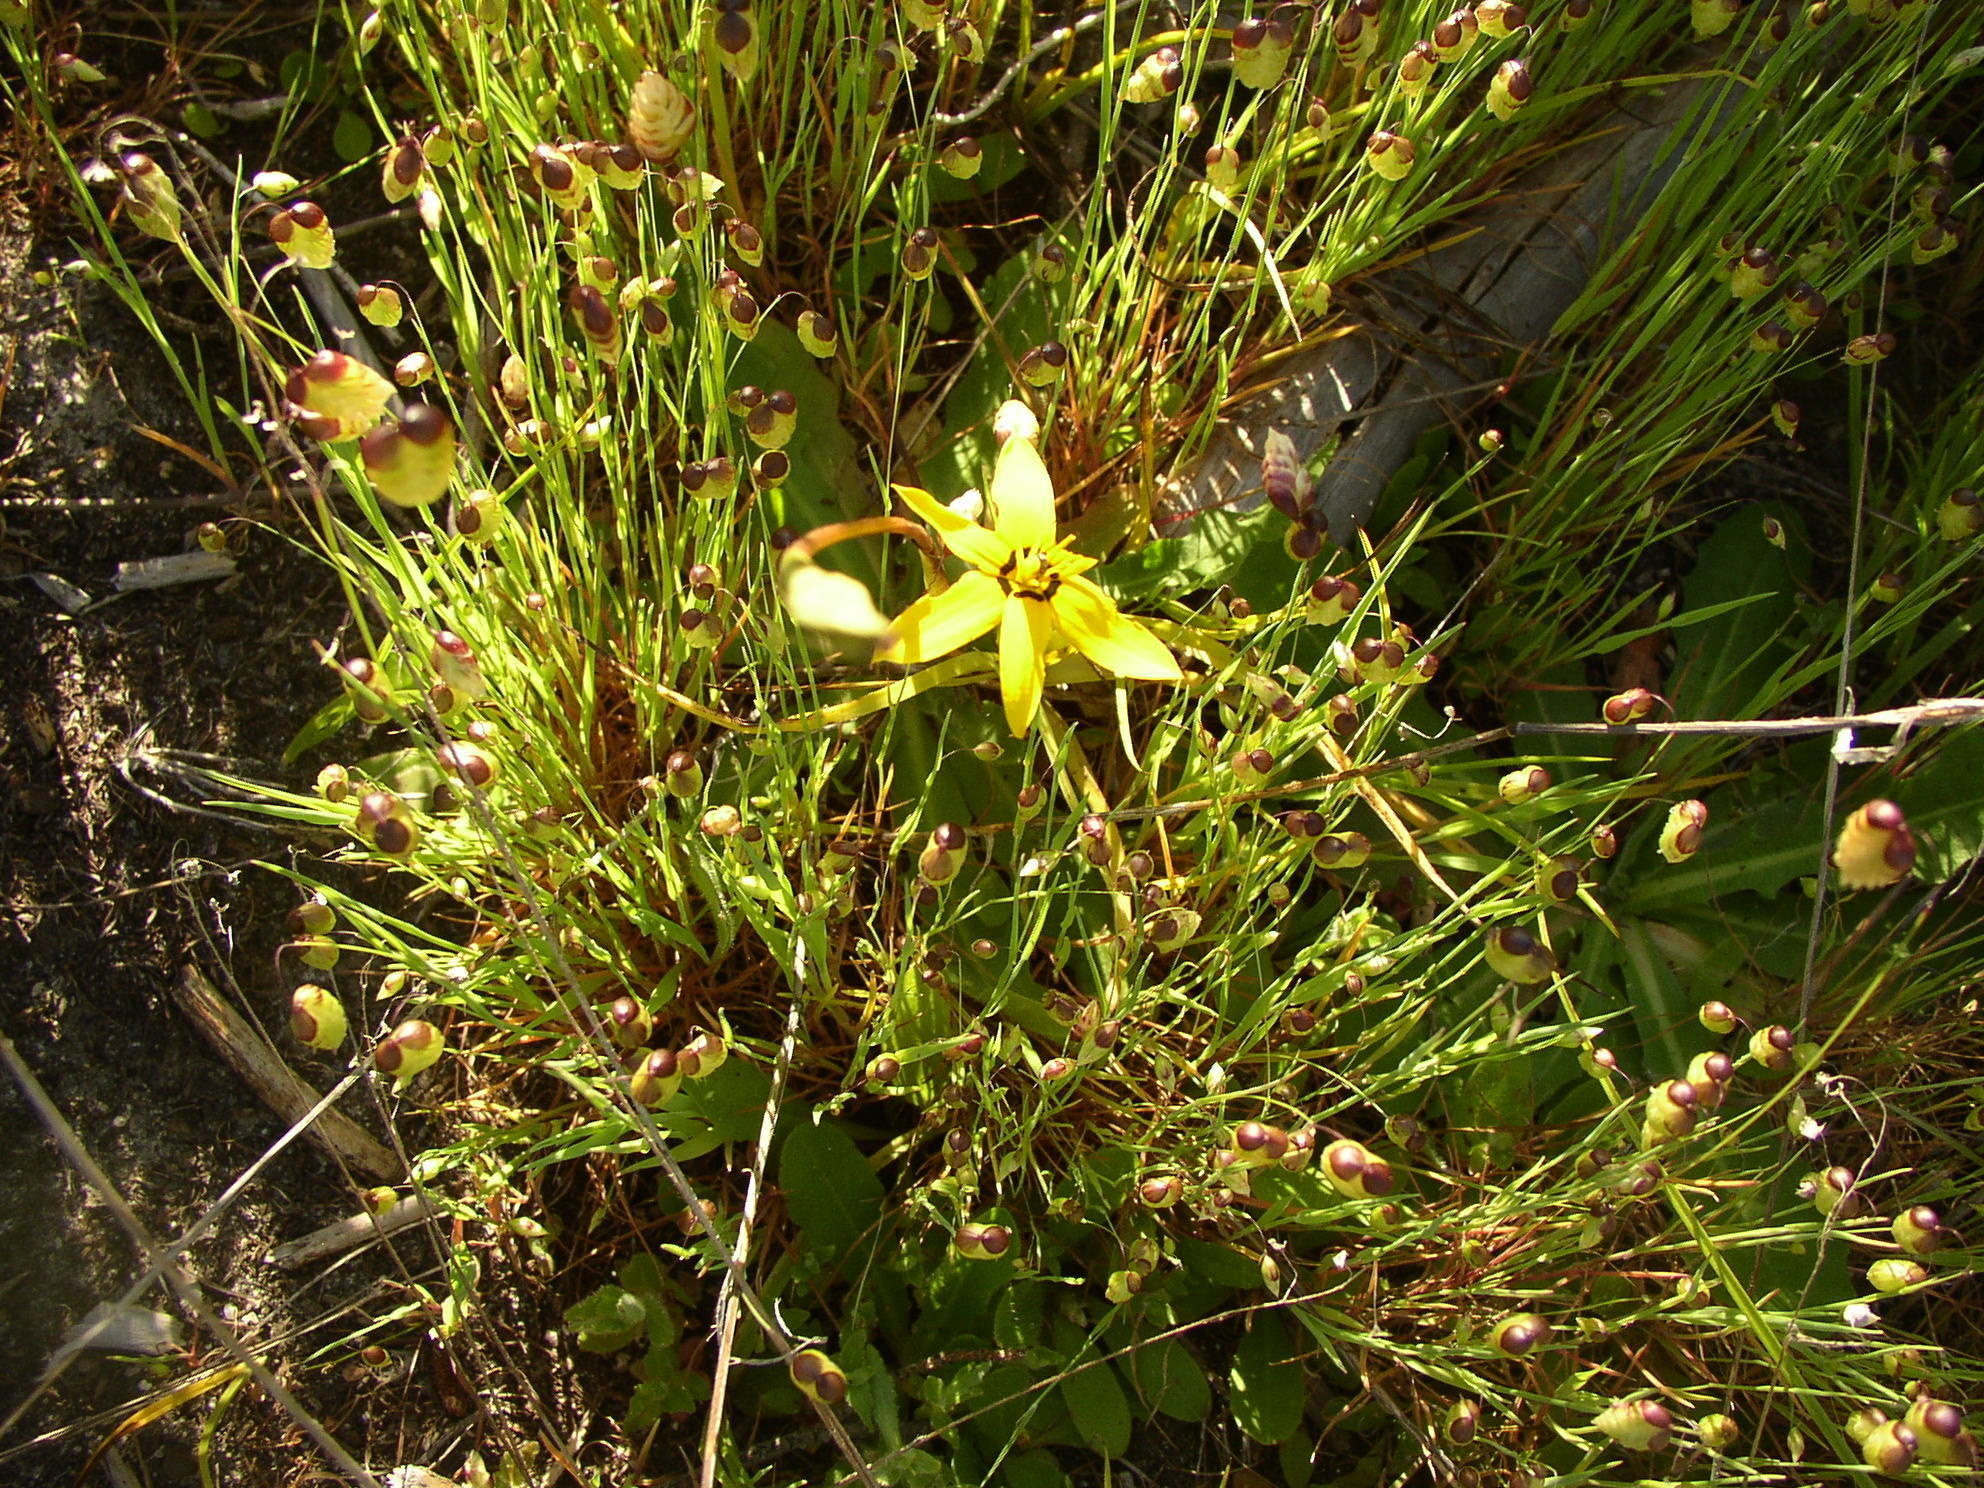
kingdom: Plantae
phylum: Tracheophyta
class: Liliopsida
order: Asparagales
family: Hypoxidaceae
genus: Pauridia
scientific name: Pauridia capensis
